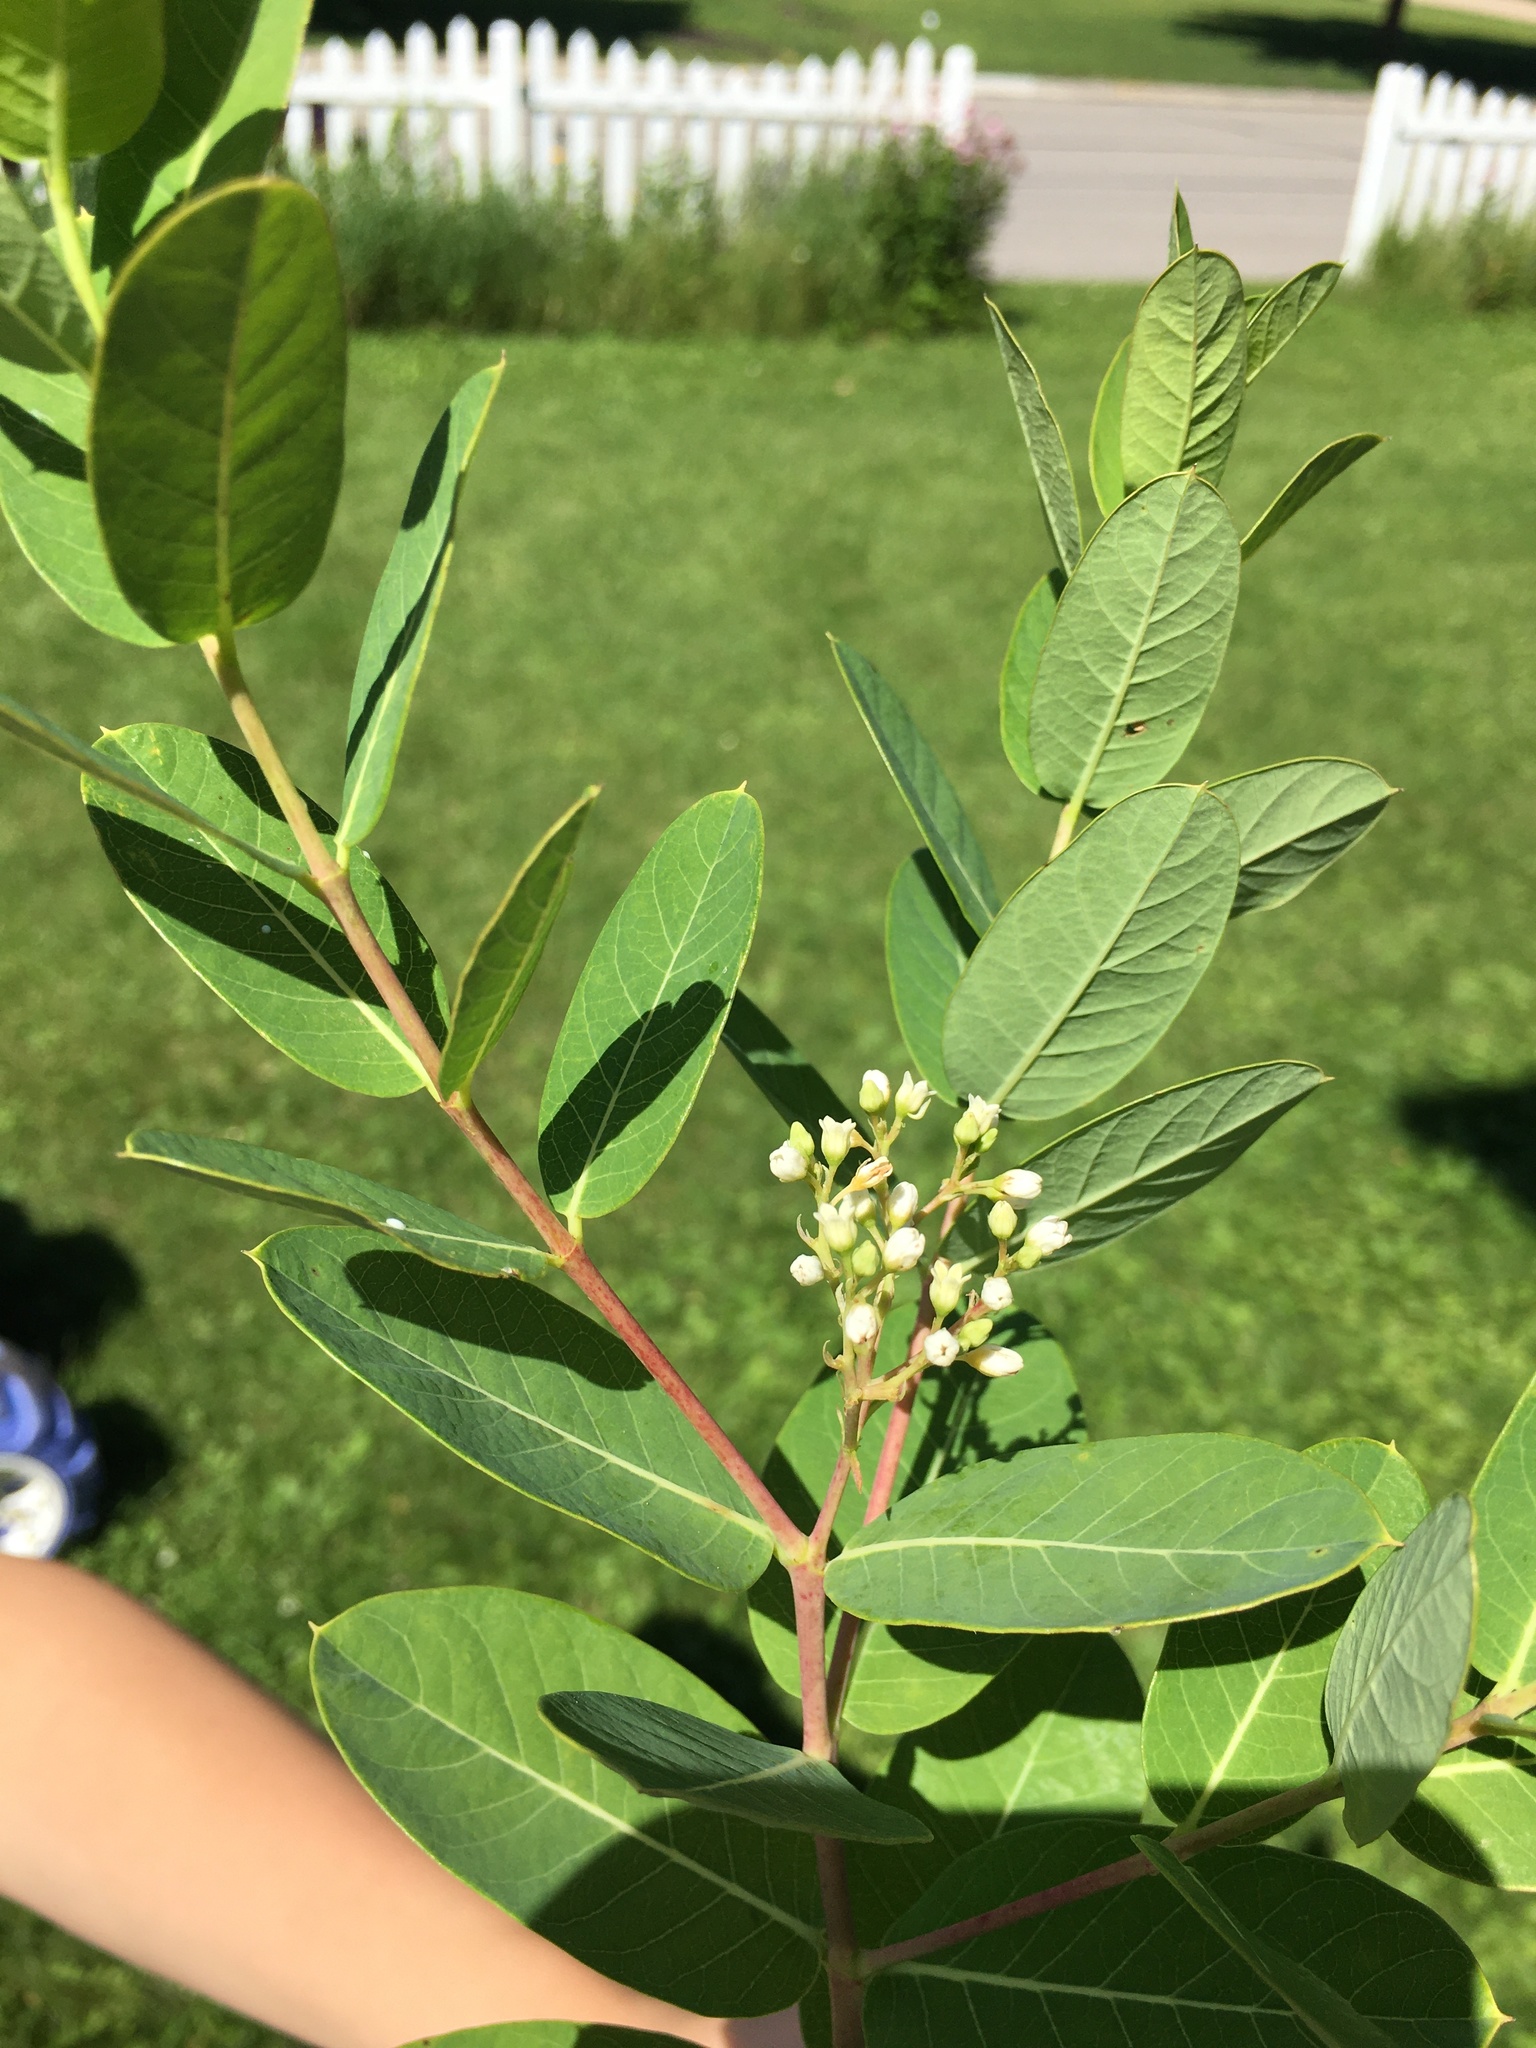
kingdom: Plantae
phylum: Tracheophyta
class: Magnoliopsida
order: Gentianales
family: Apocynaceae
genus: Apocynum
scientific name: Apocynum cannabinum
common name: Hemp dogbane
